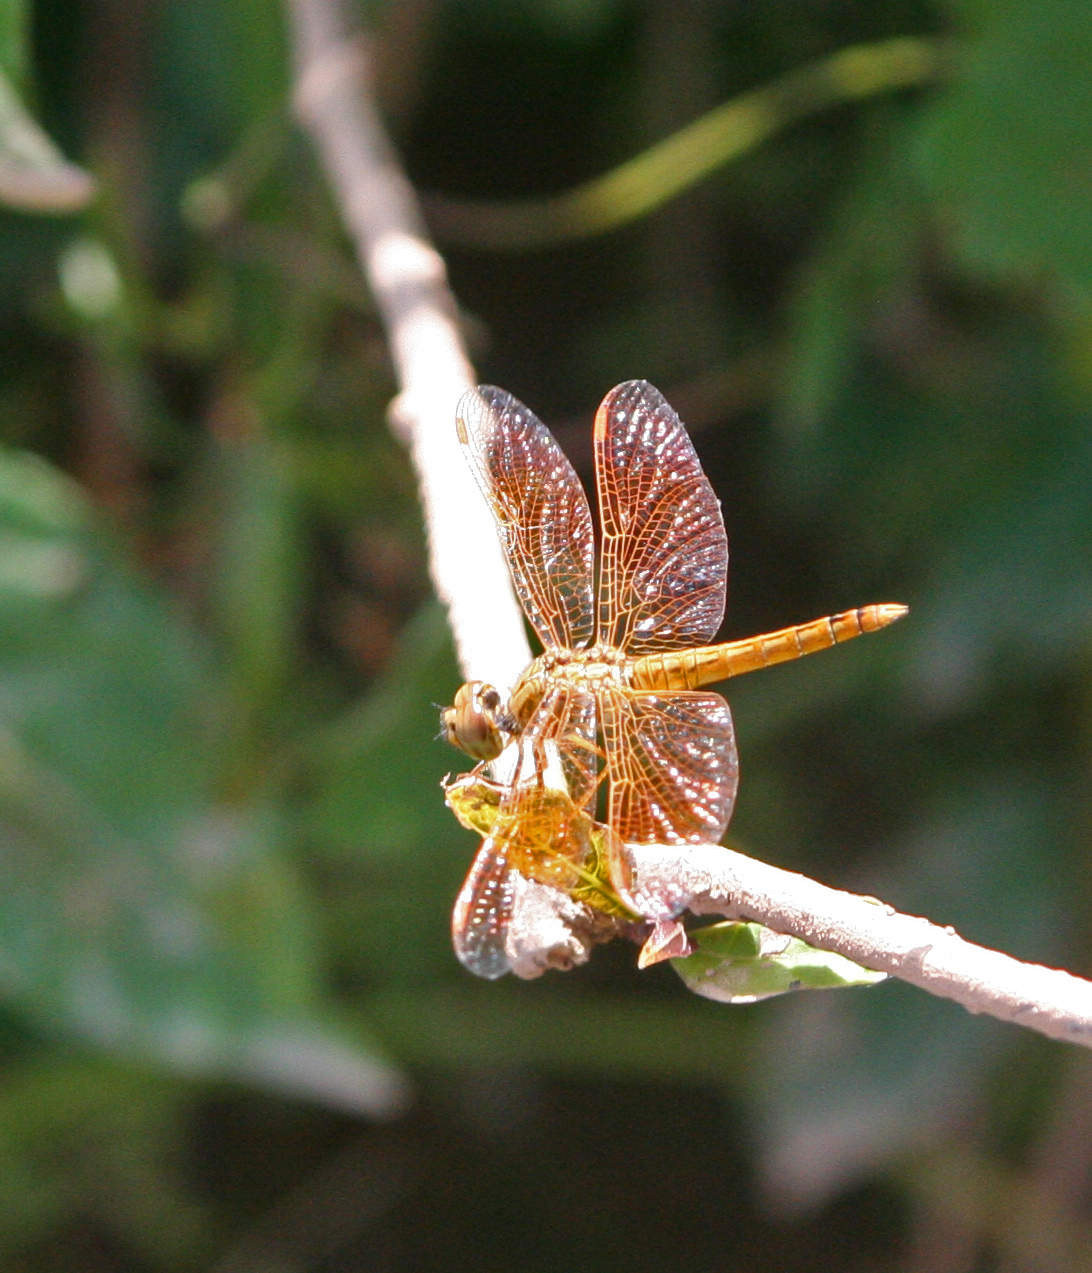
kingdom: Animalia
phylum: Arthropoda
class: Insecta
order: Odonata
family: Libellulidae
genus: Brachythemis
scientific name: Brachythemis contaminata
